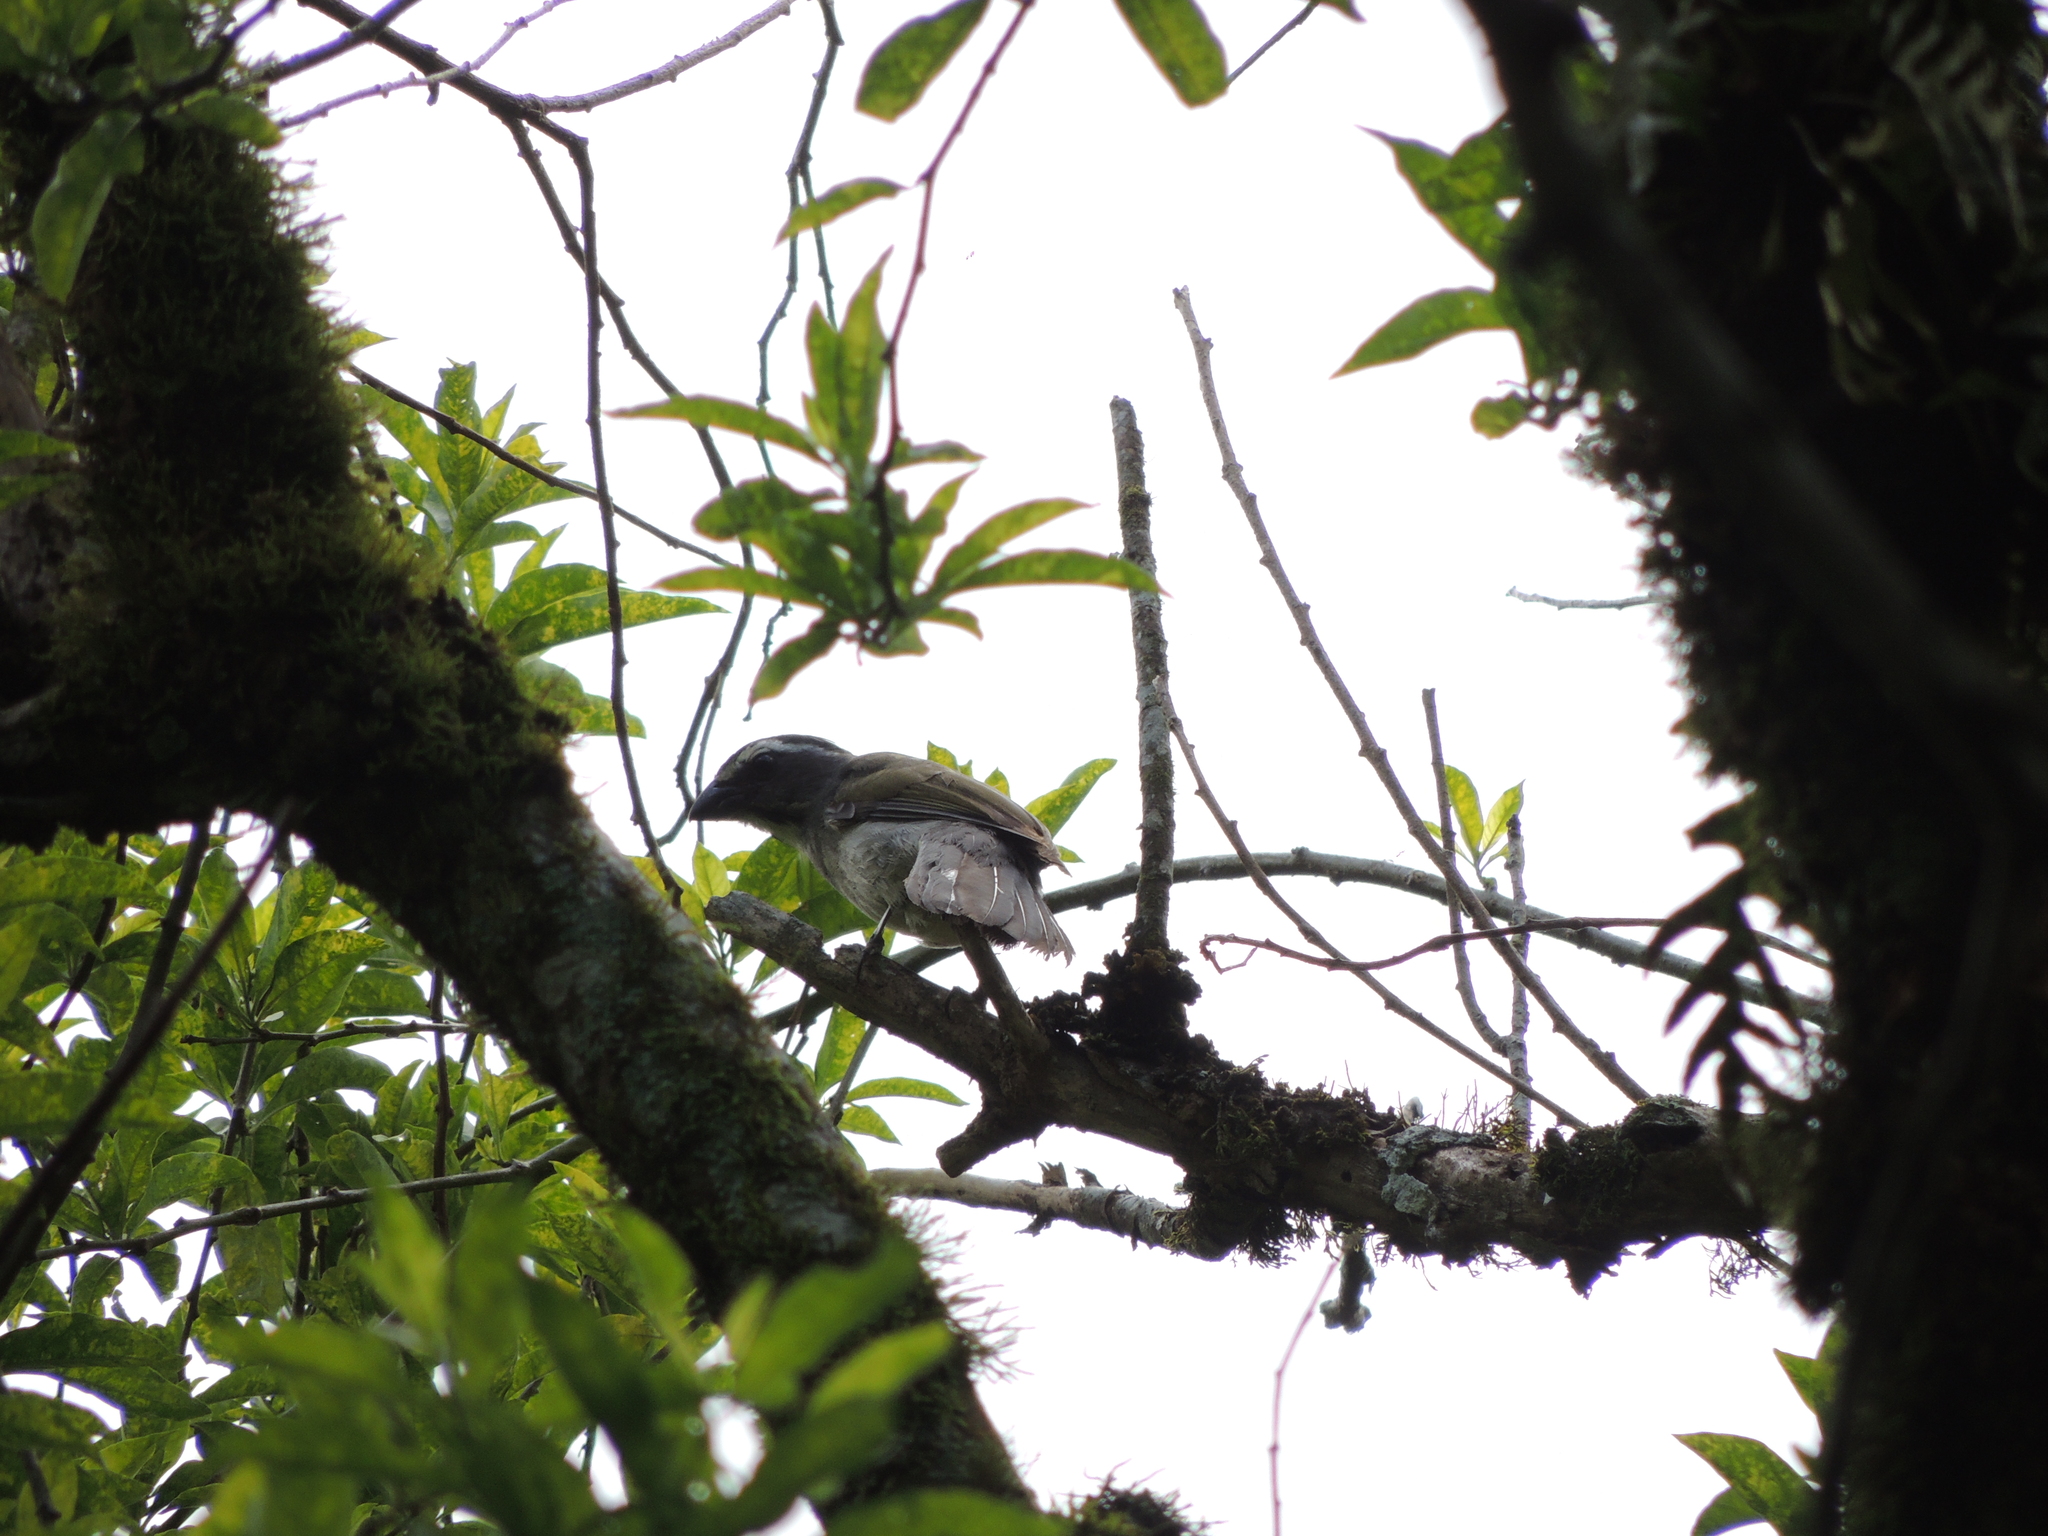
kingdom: Animalia
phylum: Chordata
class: Aves
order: Passeriformes
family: Thraupidae
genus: Saltator
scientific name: Saltator similis
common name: Green-winged saltator
